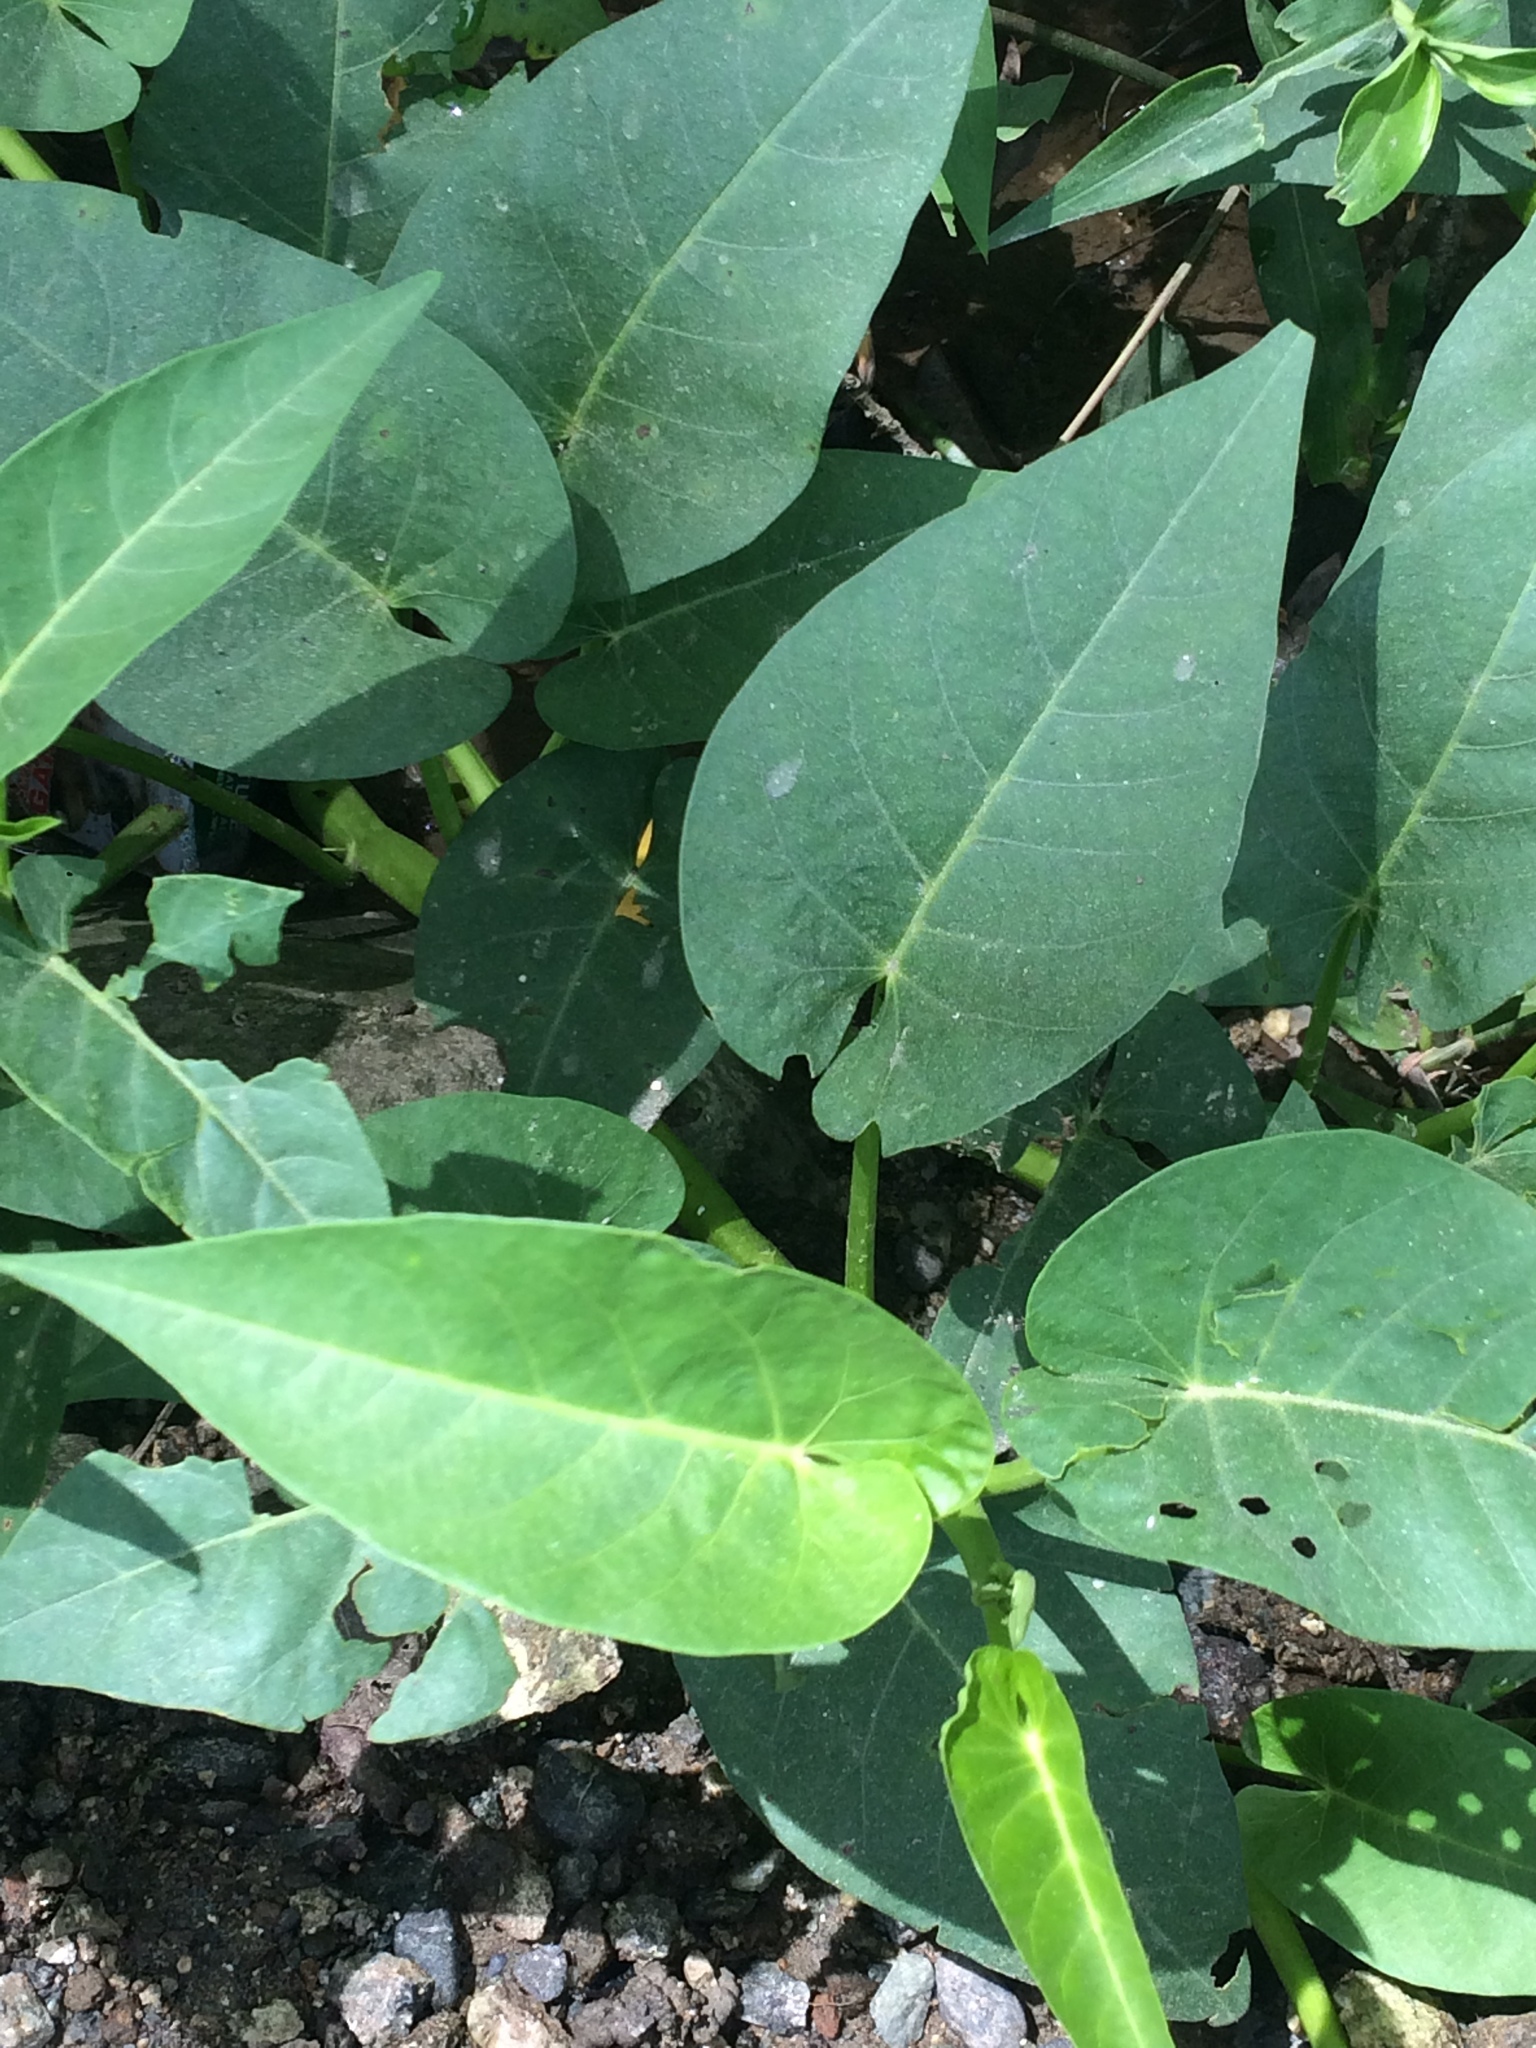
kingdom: Plantae
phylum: Tracheophyta
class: Magnoliopsida
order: Solanales
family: Convolvulaceae
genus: Ipomoea
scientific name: Ipomoea aquatica
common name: Swamp morning-glory
